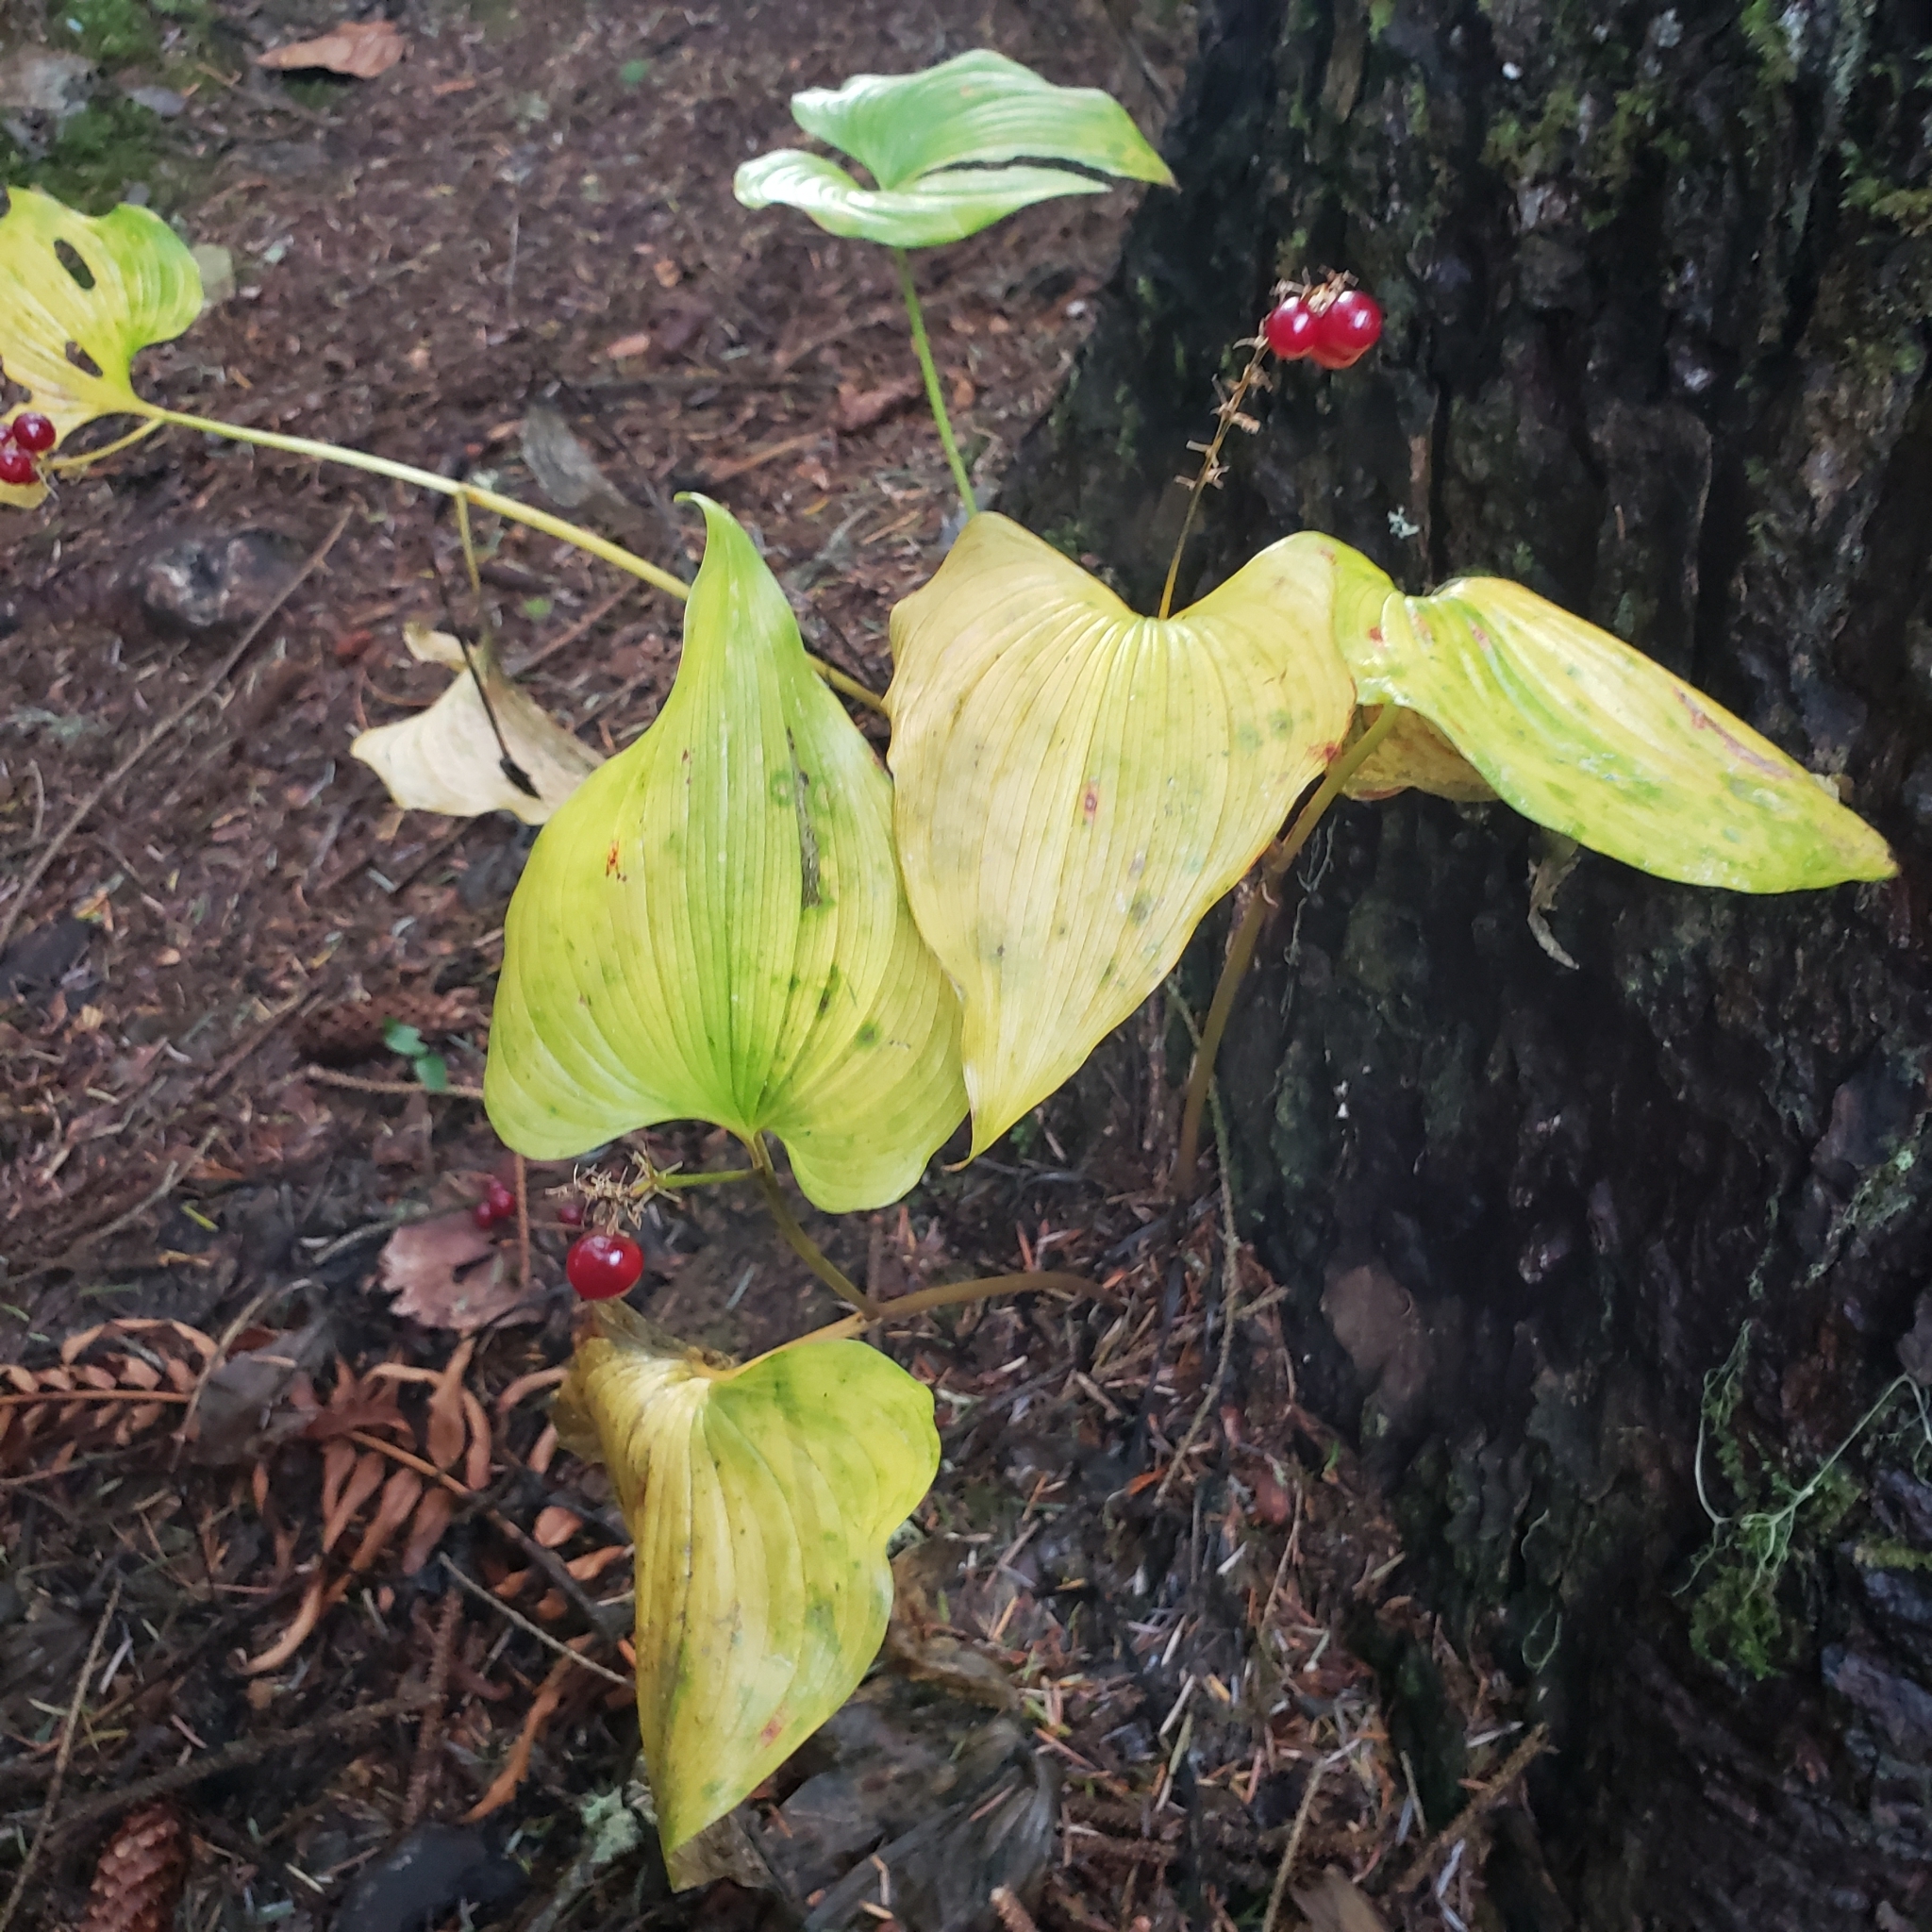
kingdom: Plantae
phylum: Tracheophyta
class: Liliopsida
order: Asparagales
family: Asparagaceae
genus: Maianthemum
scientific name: Maianthemum dilatatum
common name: False lily-of-the-valley
